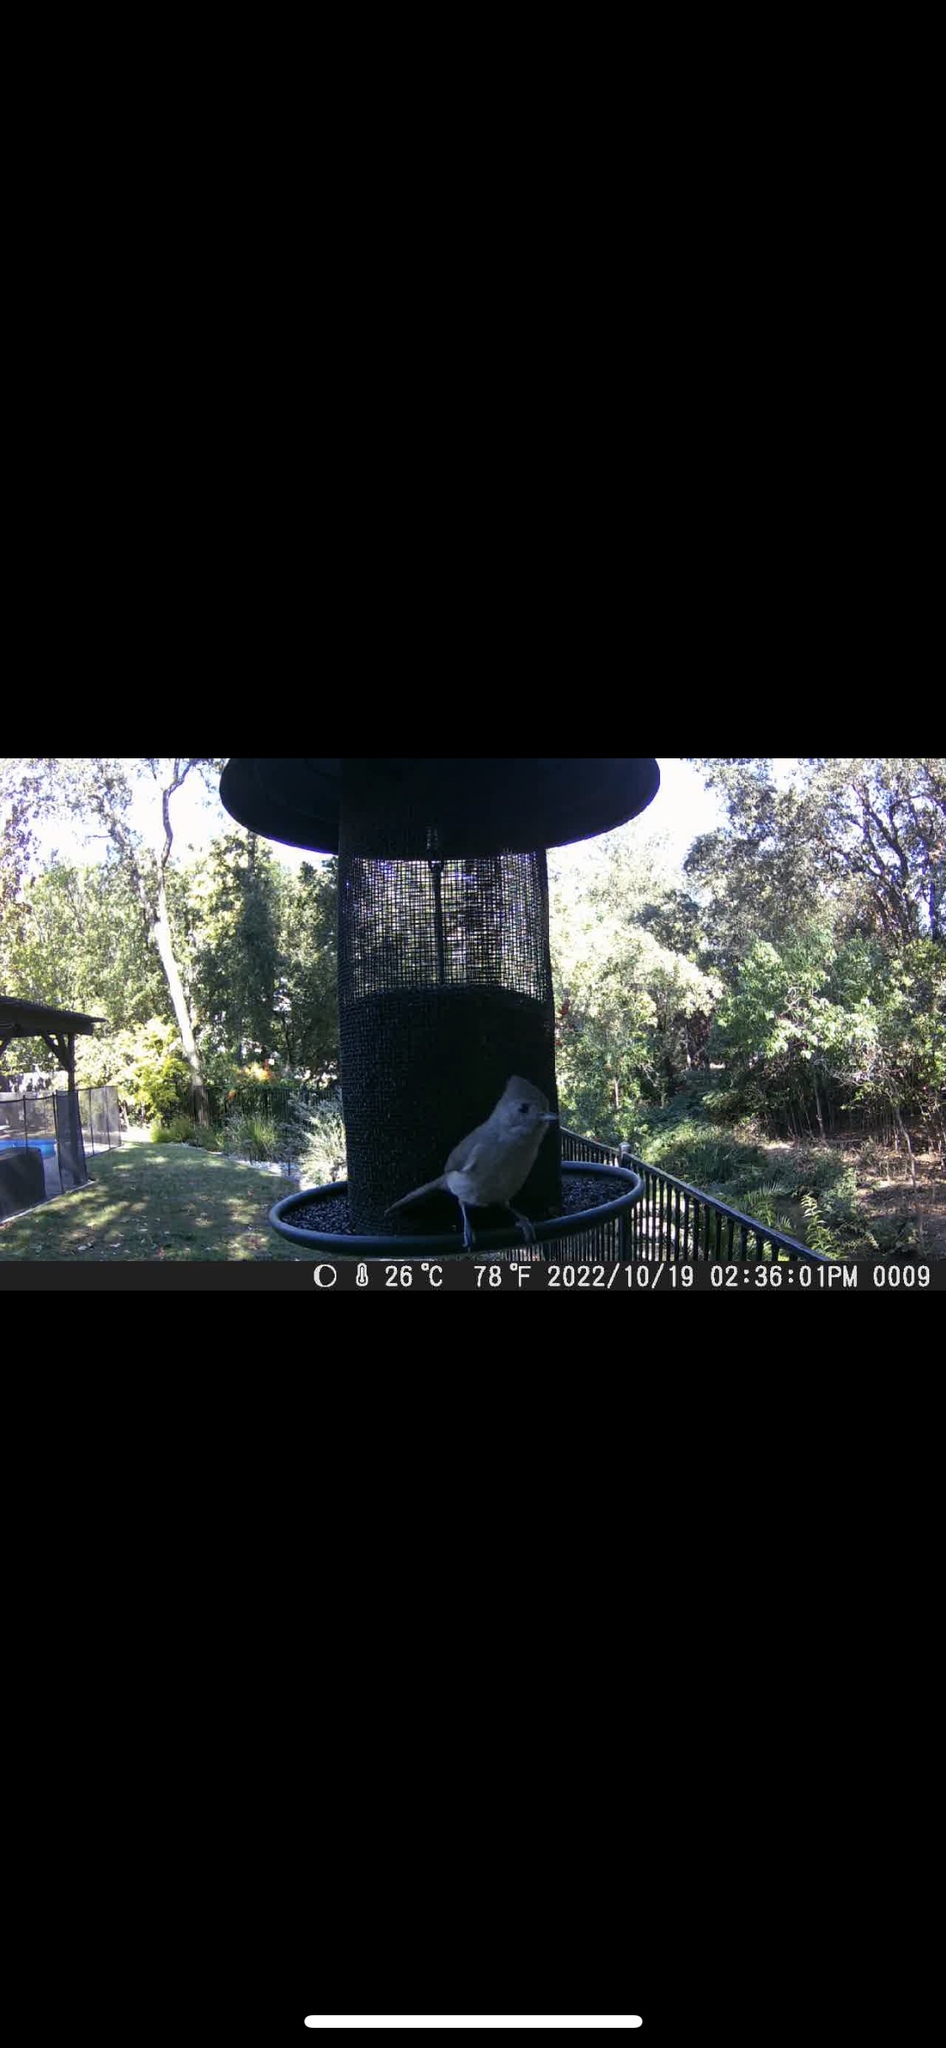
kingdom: Animalia
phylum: Chordata
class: Aves
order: Passeriformes
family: Paridae
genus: Baeolophus
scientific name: Baeolophus inornatus
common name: Oak titmouse
